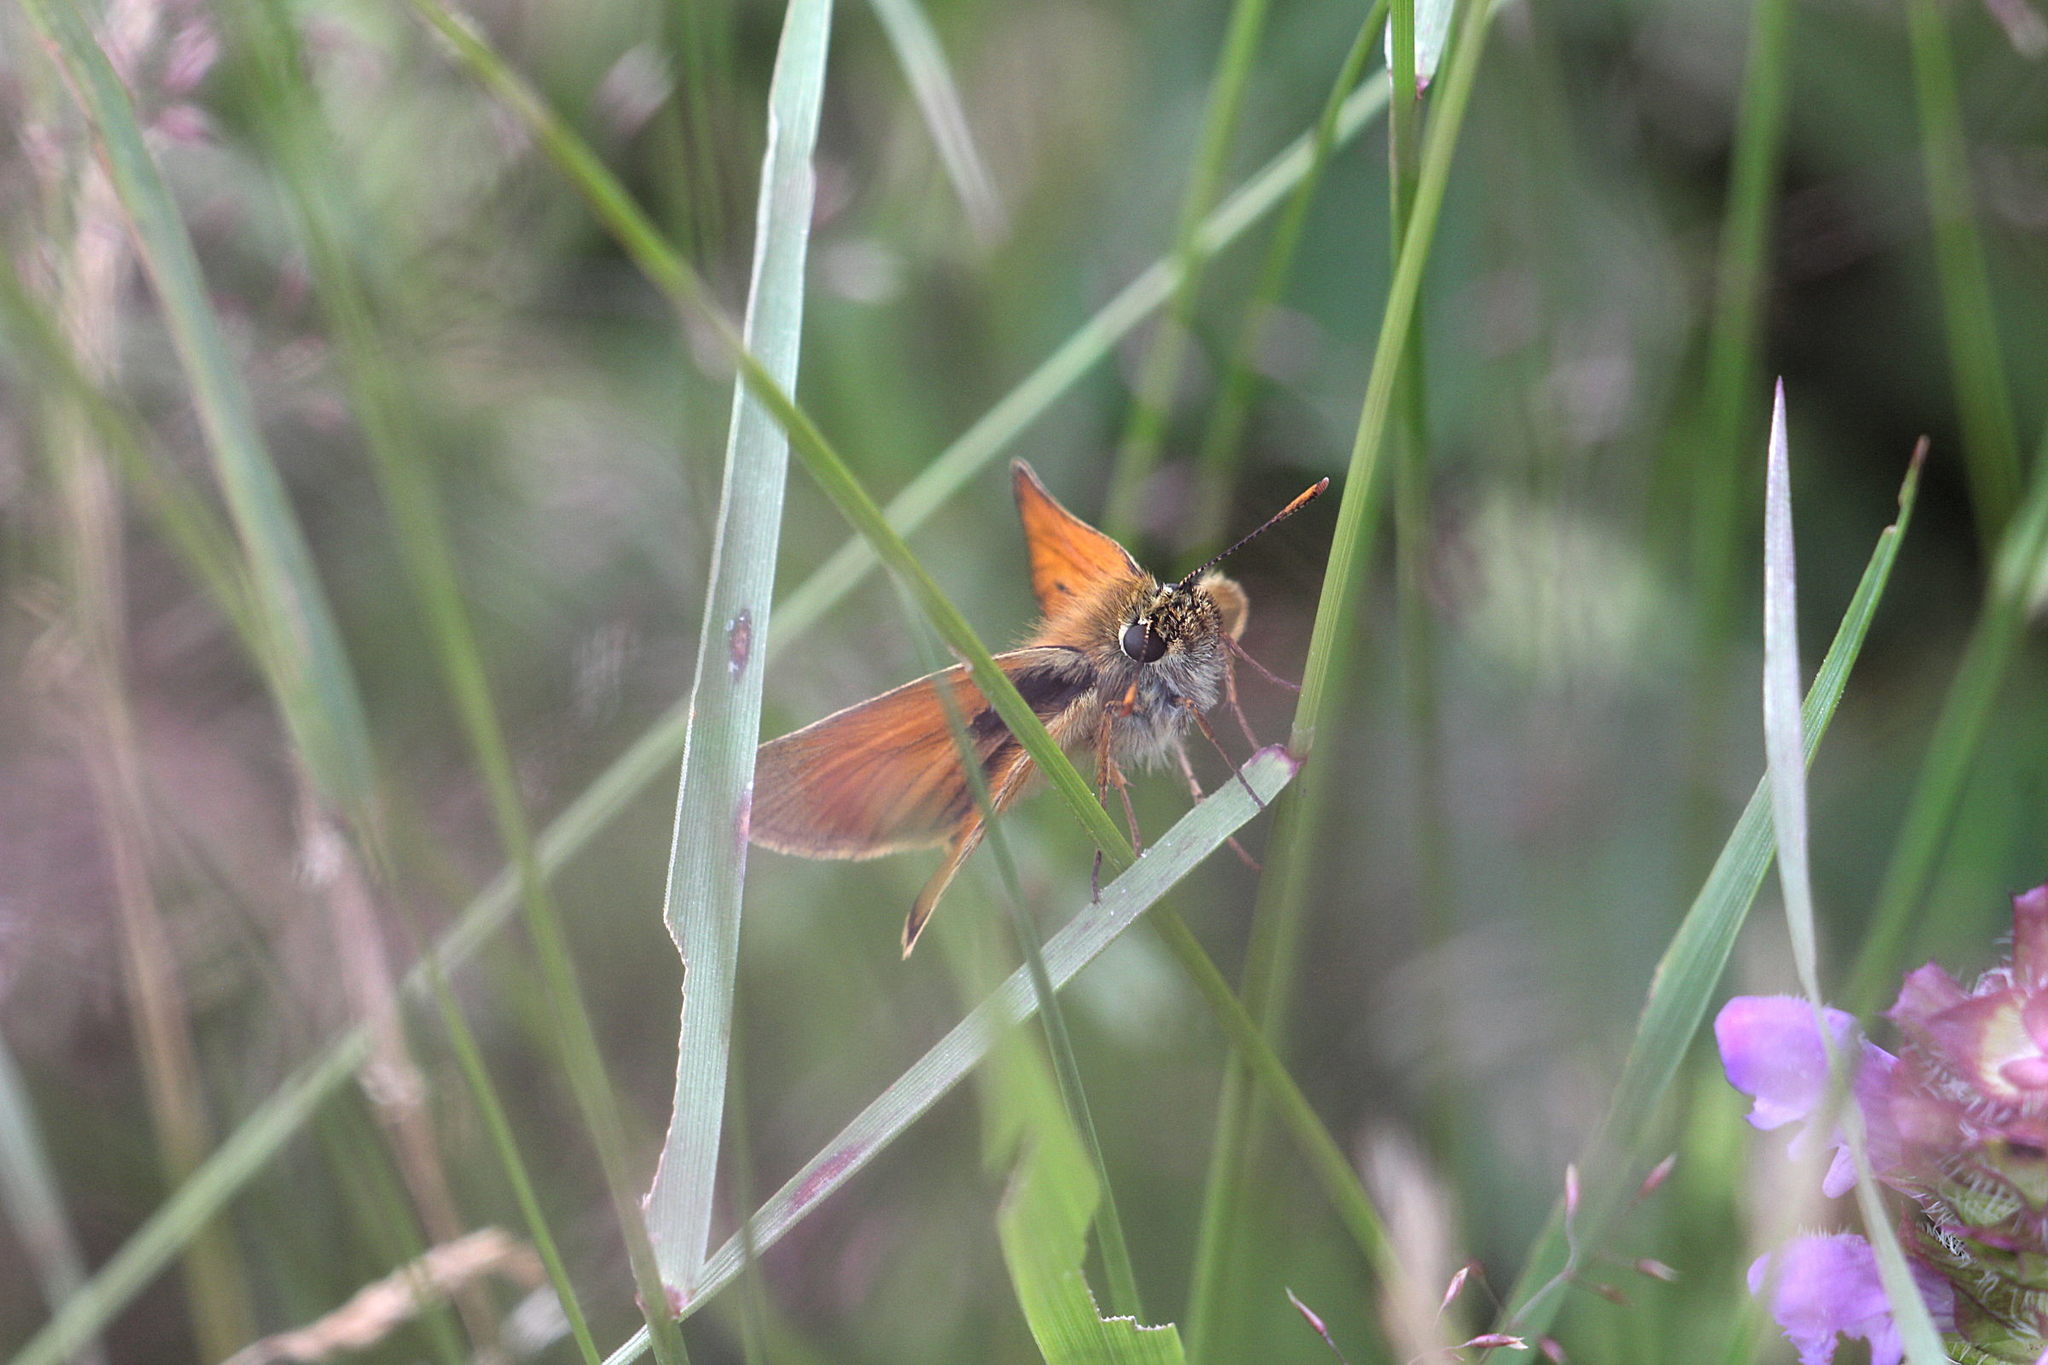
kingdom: Animalia
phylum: Arthropoda
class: Insecta
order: Lepidoptera
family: Hesperiidae
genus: Thymelicus
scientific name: Thymelicus sylvestris
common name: Small skipper
